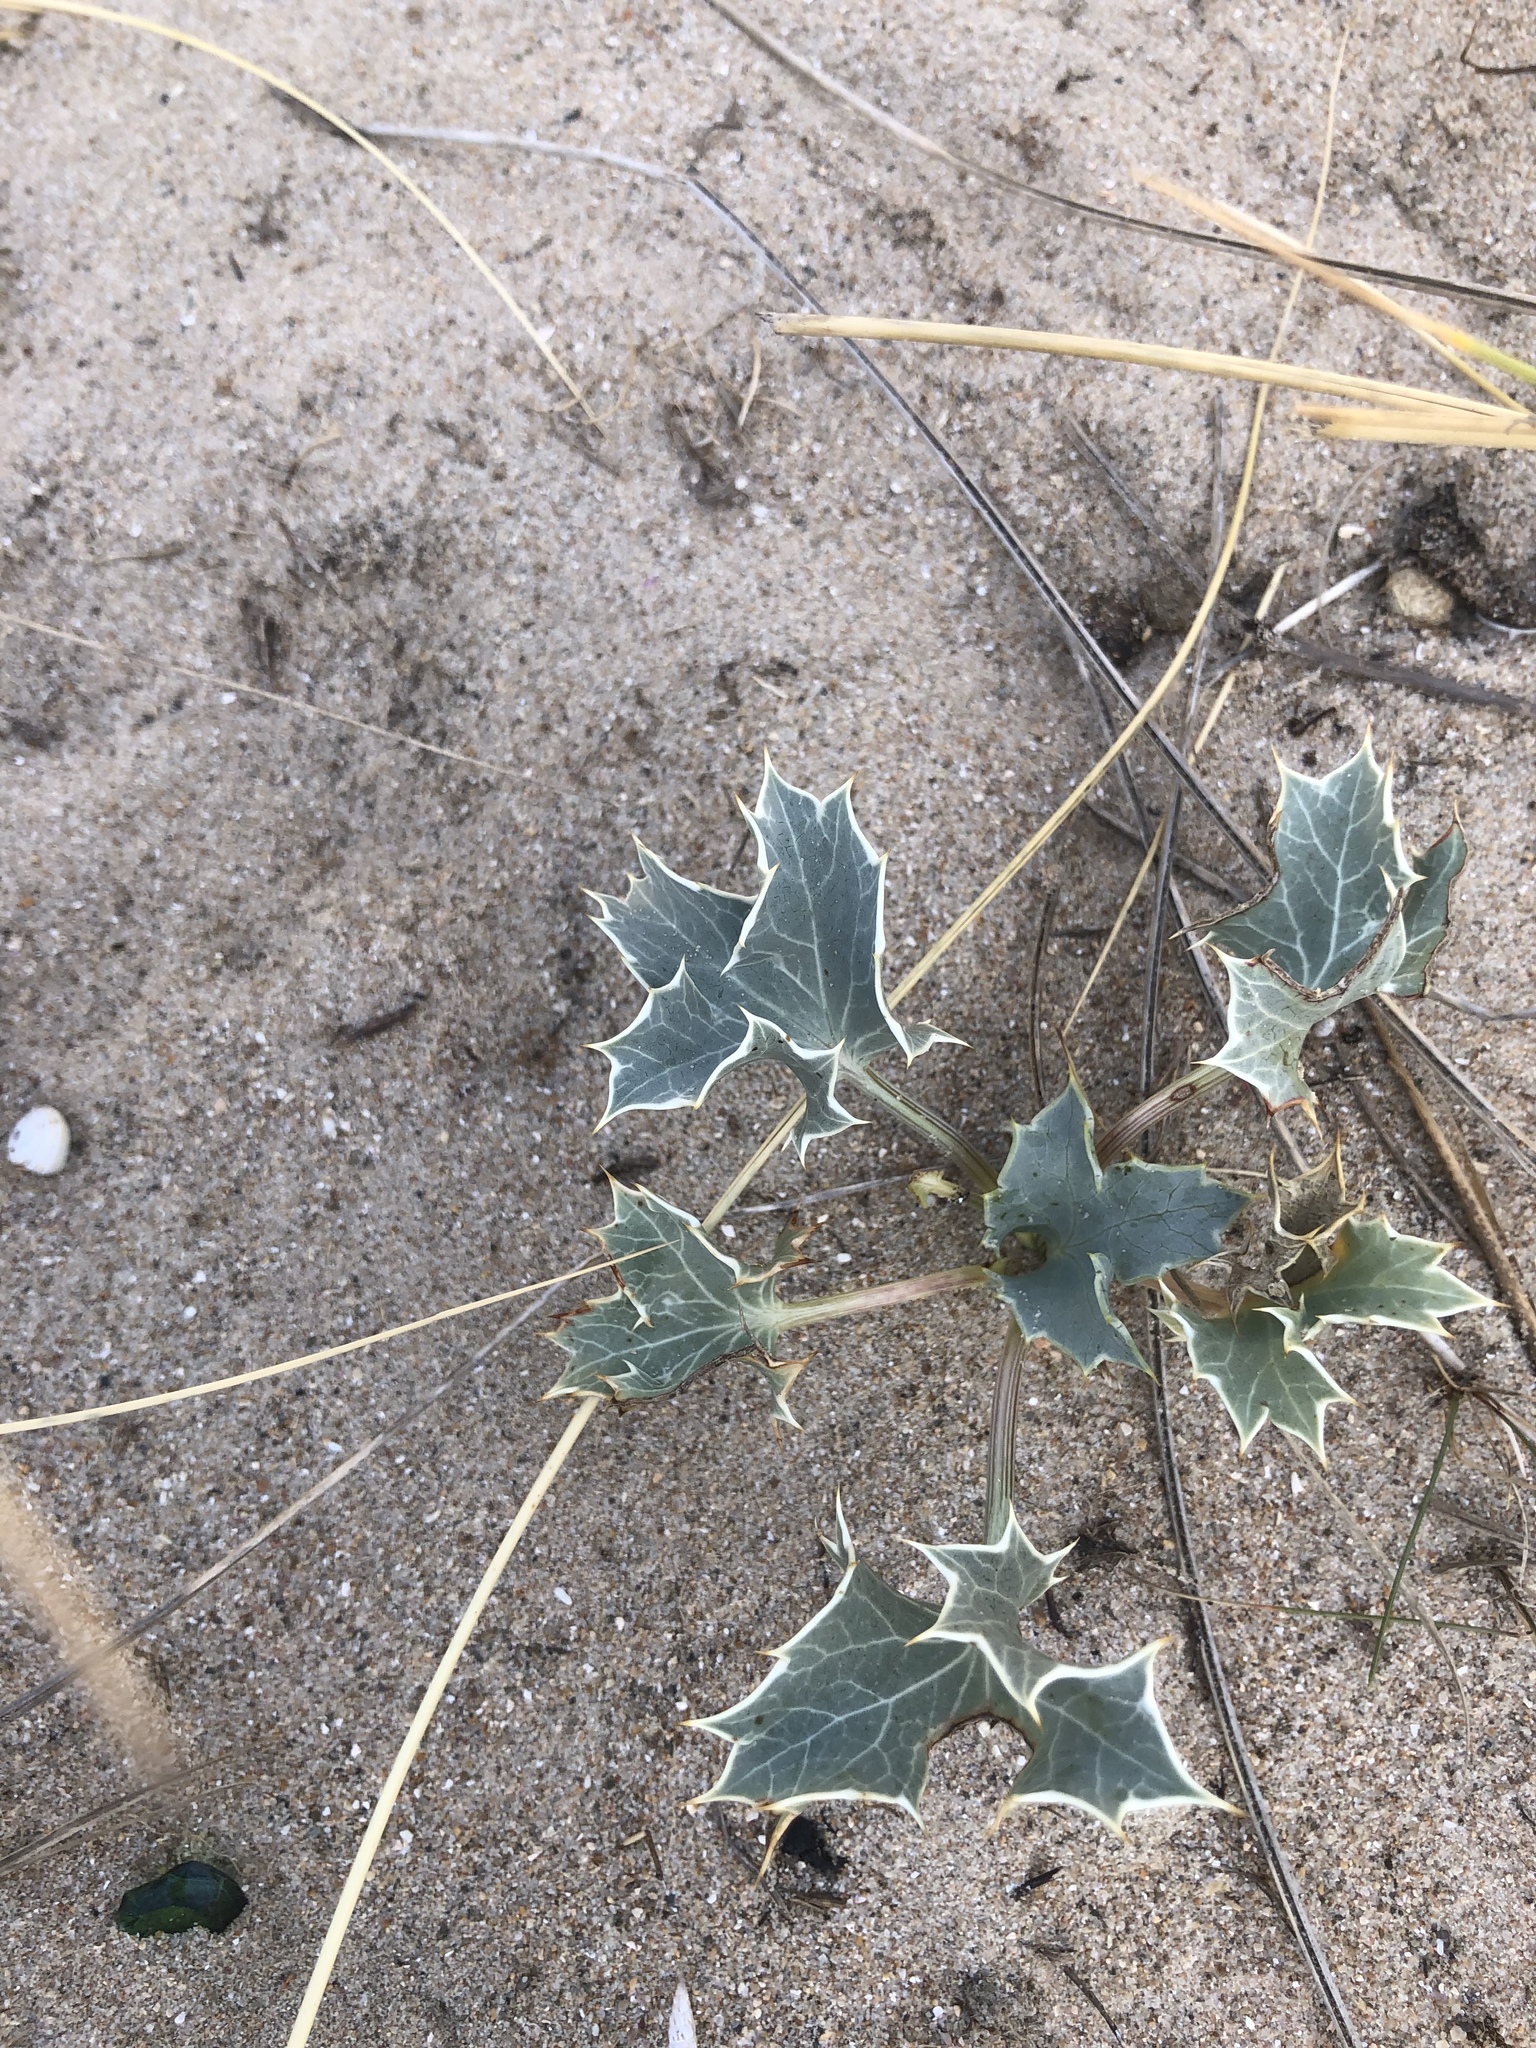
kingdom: Plantae
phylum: Tracheophyta
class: Magnoliopsida
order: Apiales
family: Apiaceae
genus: Eryngium
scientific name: Eryngium maritimum
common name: Sea-holly
